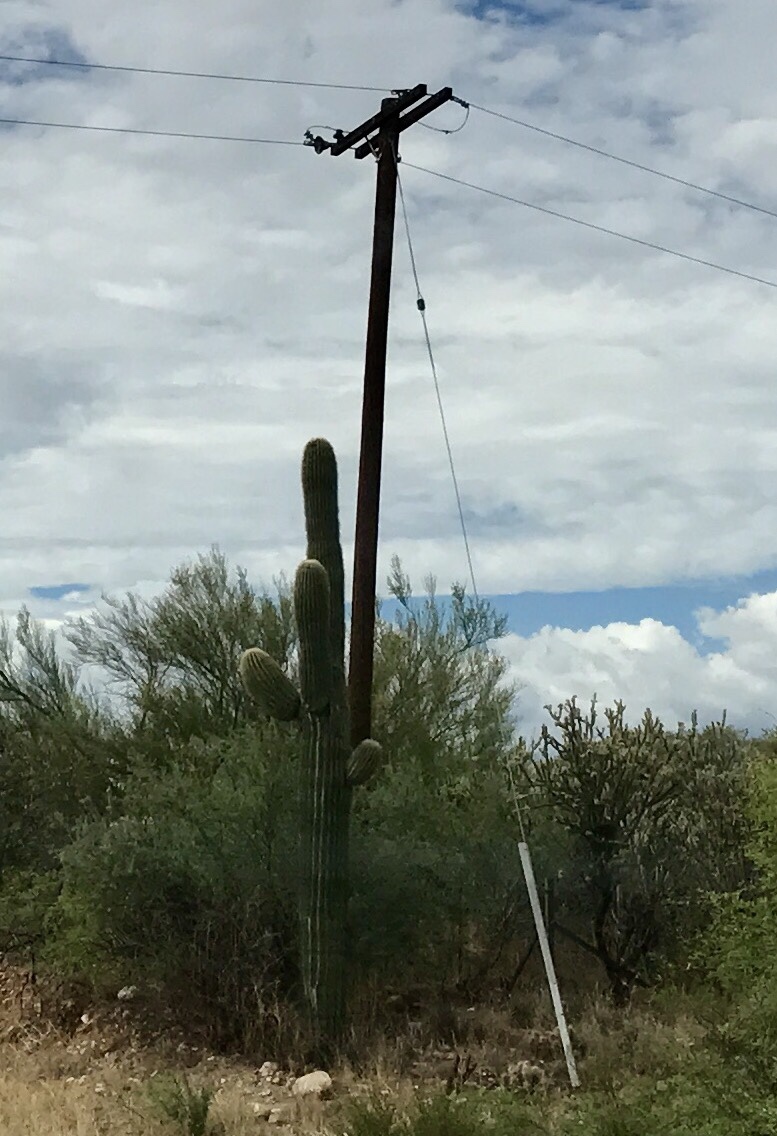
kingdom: Plantae
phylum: Tracheophyta
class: Magnoliopsida
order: Caryophyllales
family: Cactaceae
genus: Carnegiea
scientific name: Carnegiea gigantea
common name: Saguaro
